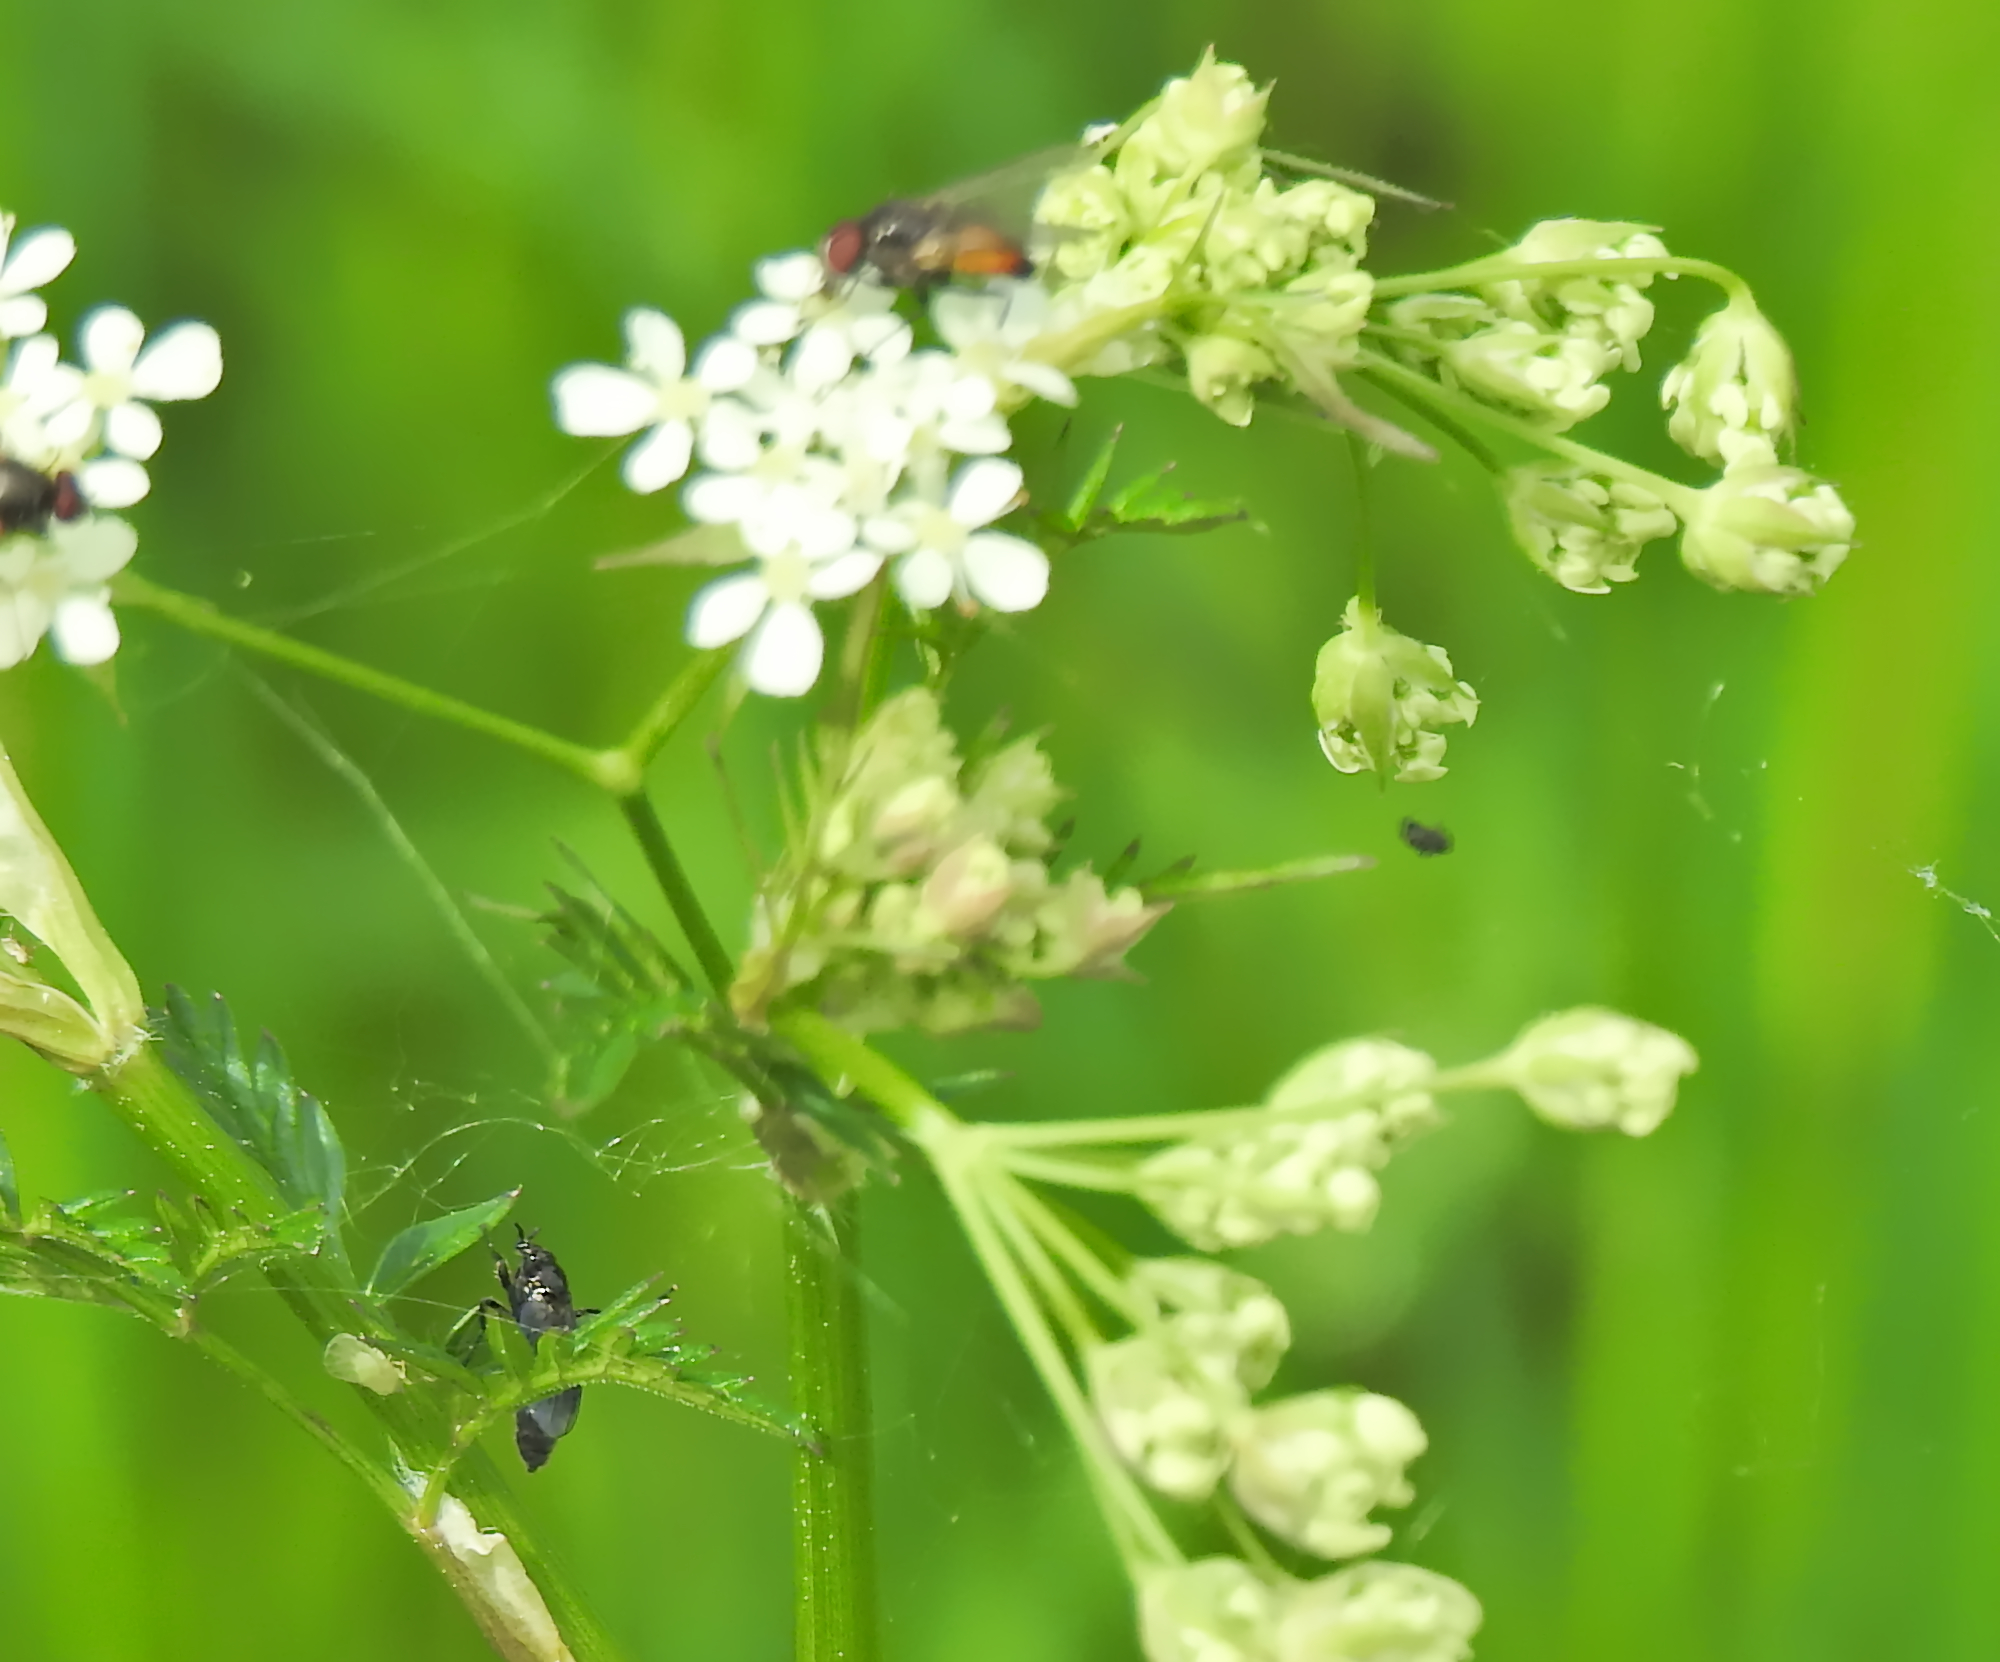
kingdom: Animalia
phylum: Arthropoda
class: Insecta
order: Diptera
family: Muscidae
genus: Thricops
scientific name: Thricops semicinereus
